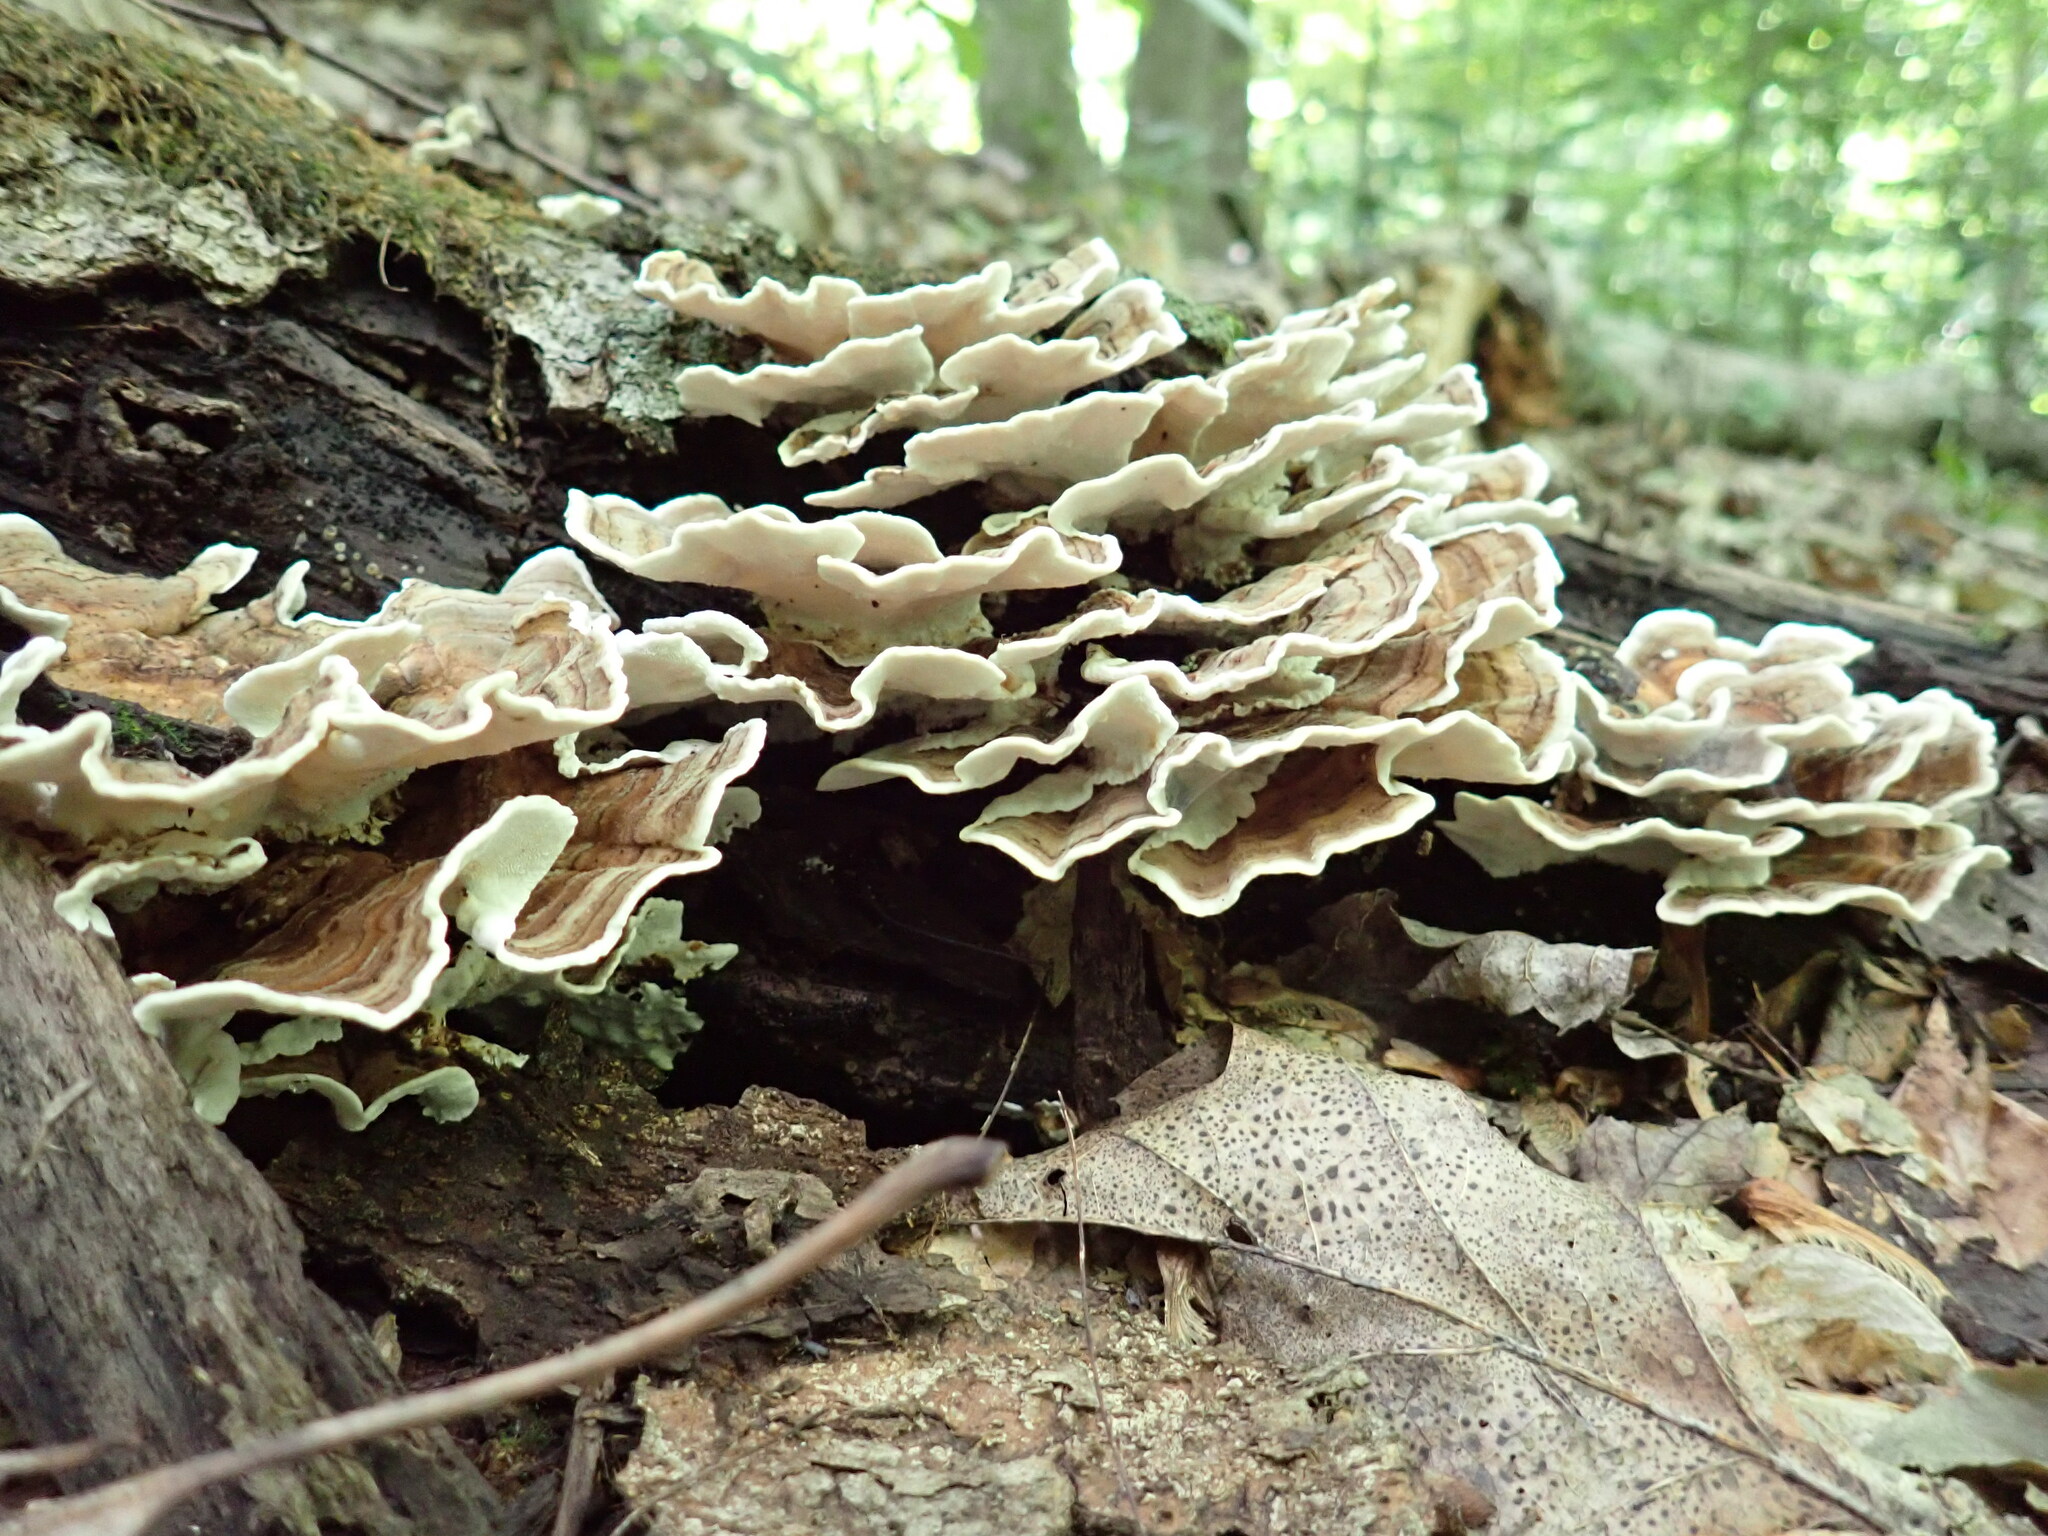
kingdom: Fungi
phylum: Basidiomycota
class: Agaricomycetes
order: Polyporales
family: Polyporaceae
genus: Trametes
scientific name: Trametes versicolor
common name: Turkeytail
